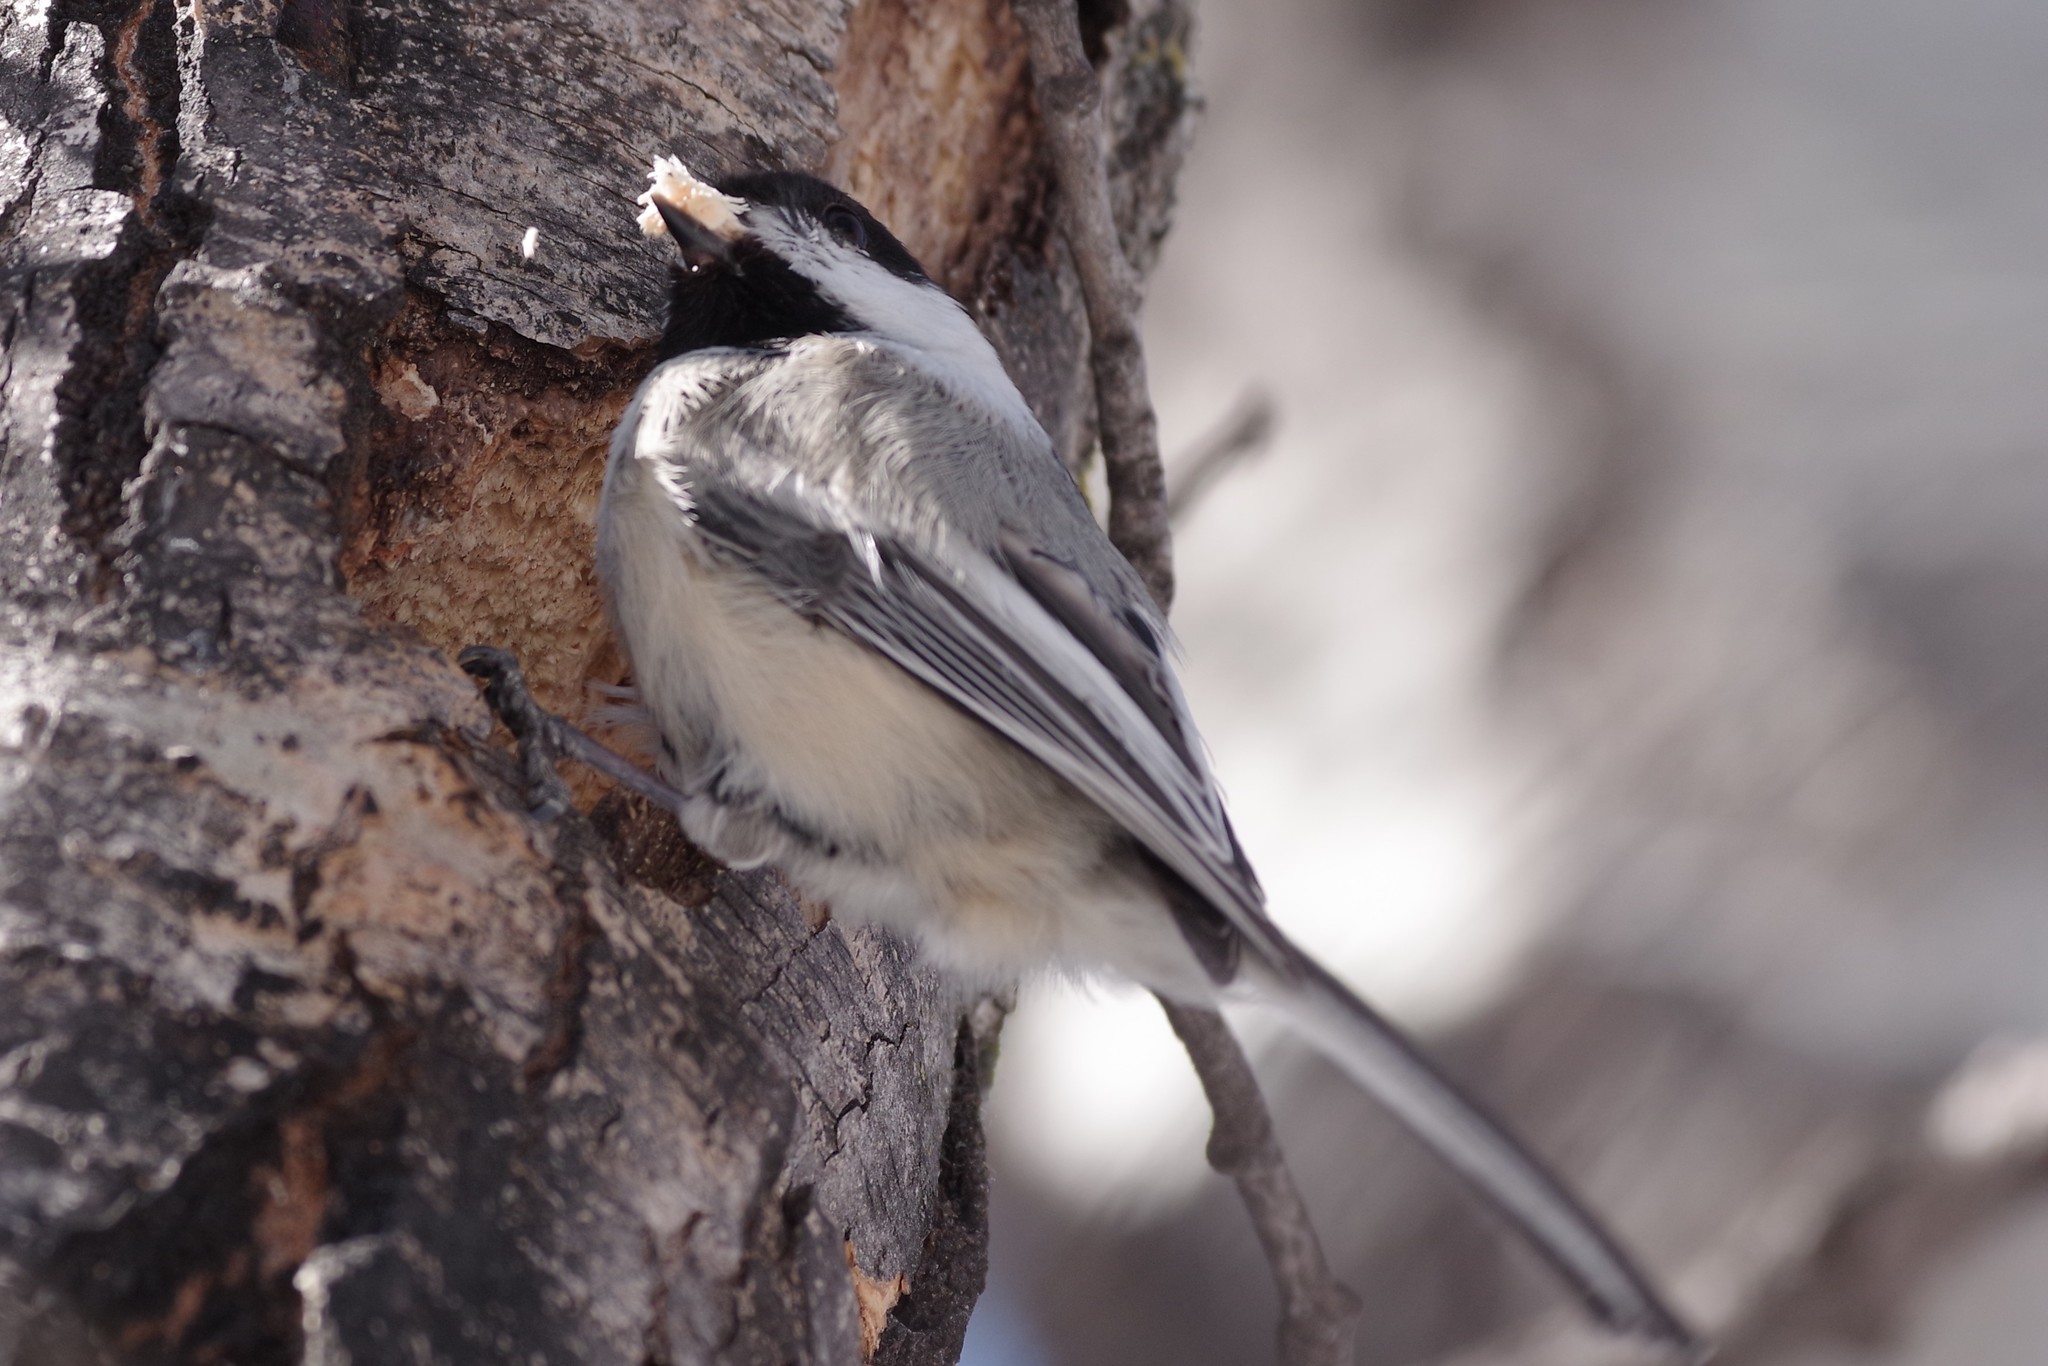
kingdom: Animalia
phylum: Chordata
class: Aves
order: Passeriformes
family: Paridae
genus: Poecile
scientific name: Poecile atricapillus
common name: Black-capped chickadee
